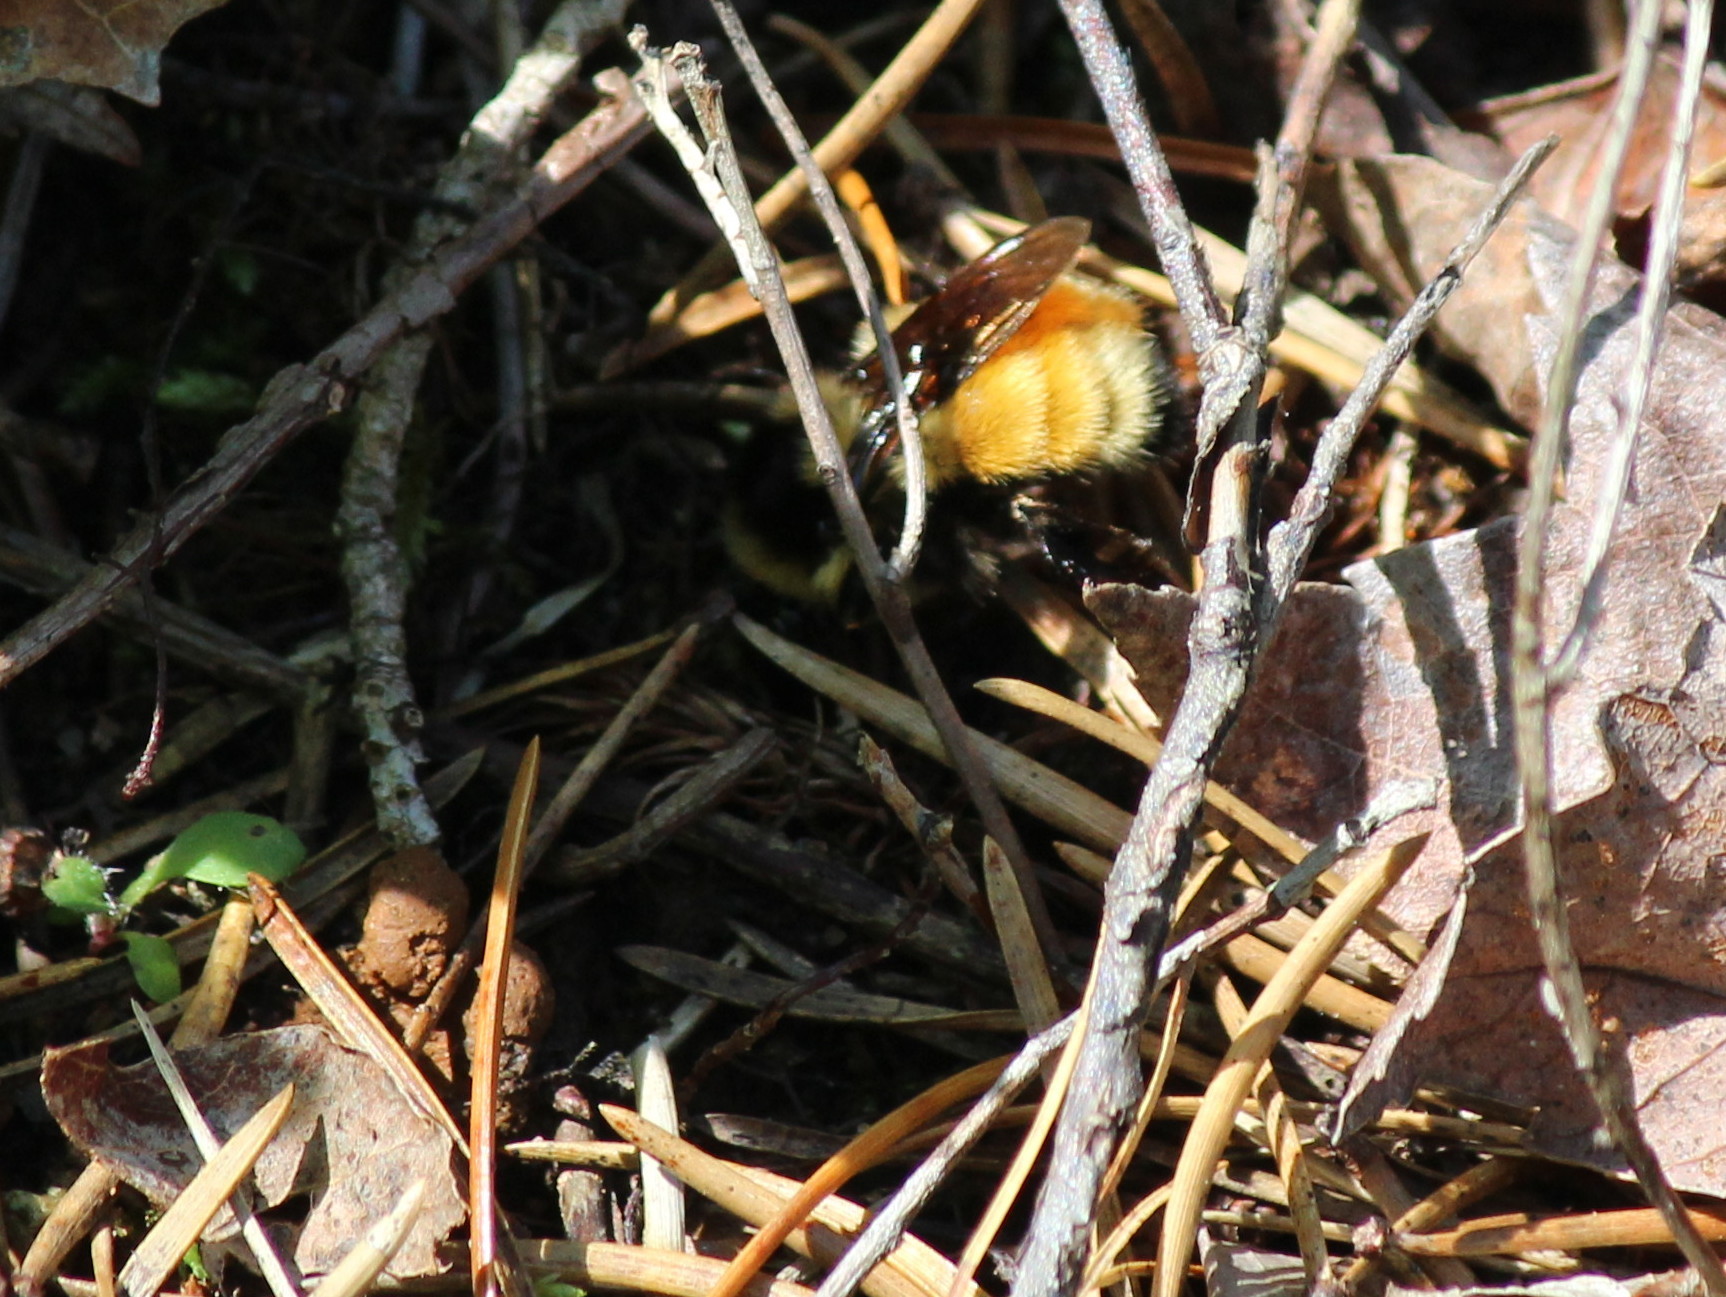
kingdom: Animalia
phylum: Arthropoda
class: Insecta
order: Hymenoptera
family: Apidae
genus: Bombus
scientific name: Bombus ternarius
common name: Tri-colored bumble bee
